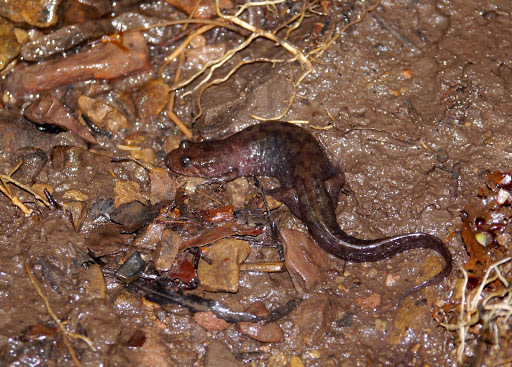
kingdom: Animalia
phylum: Chordata
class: Amphibia
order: Caudata
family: Plethodontidae
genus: Desmognathus
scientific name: Desmognathus monticola
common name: Seal salamander
